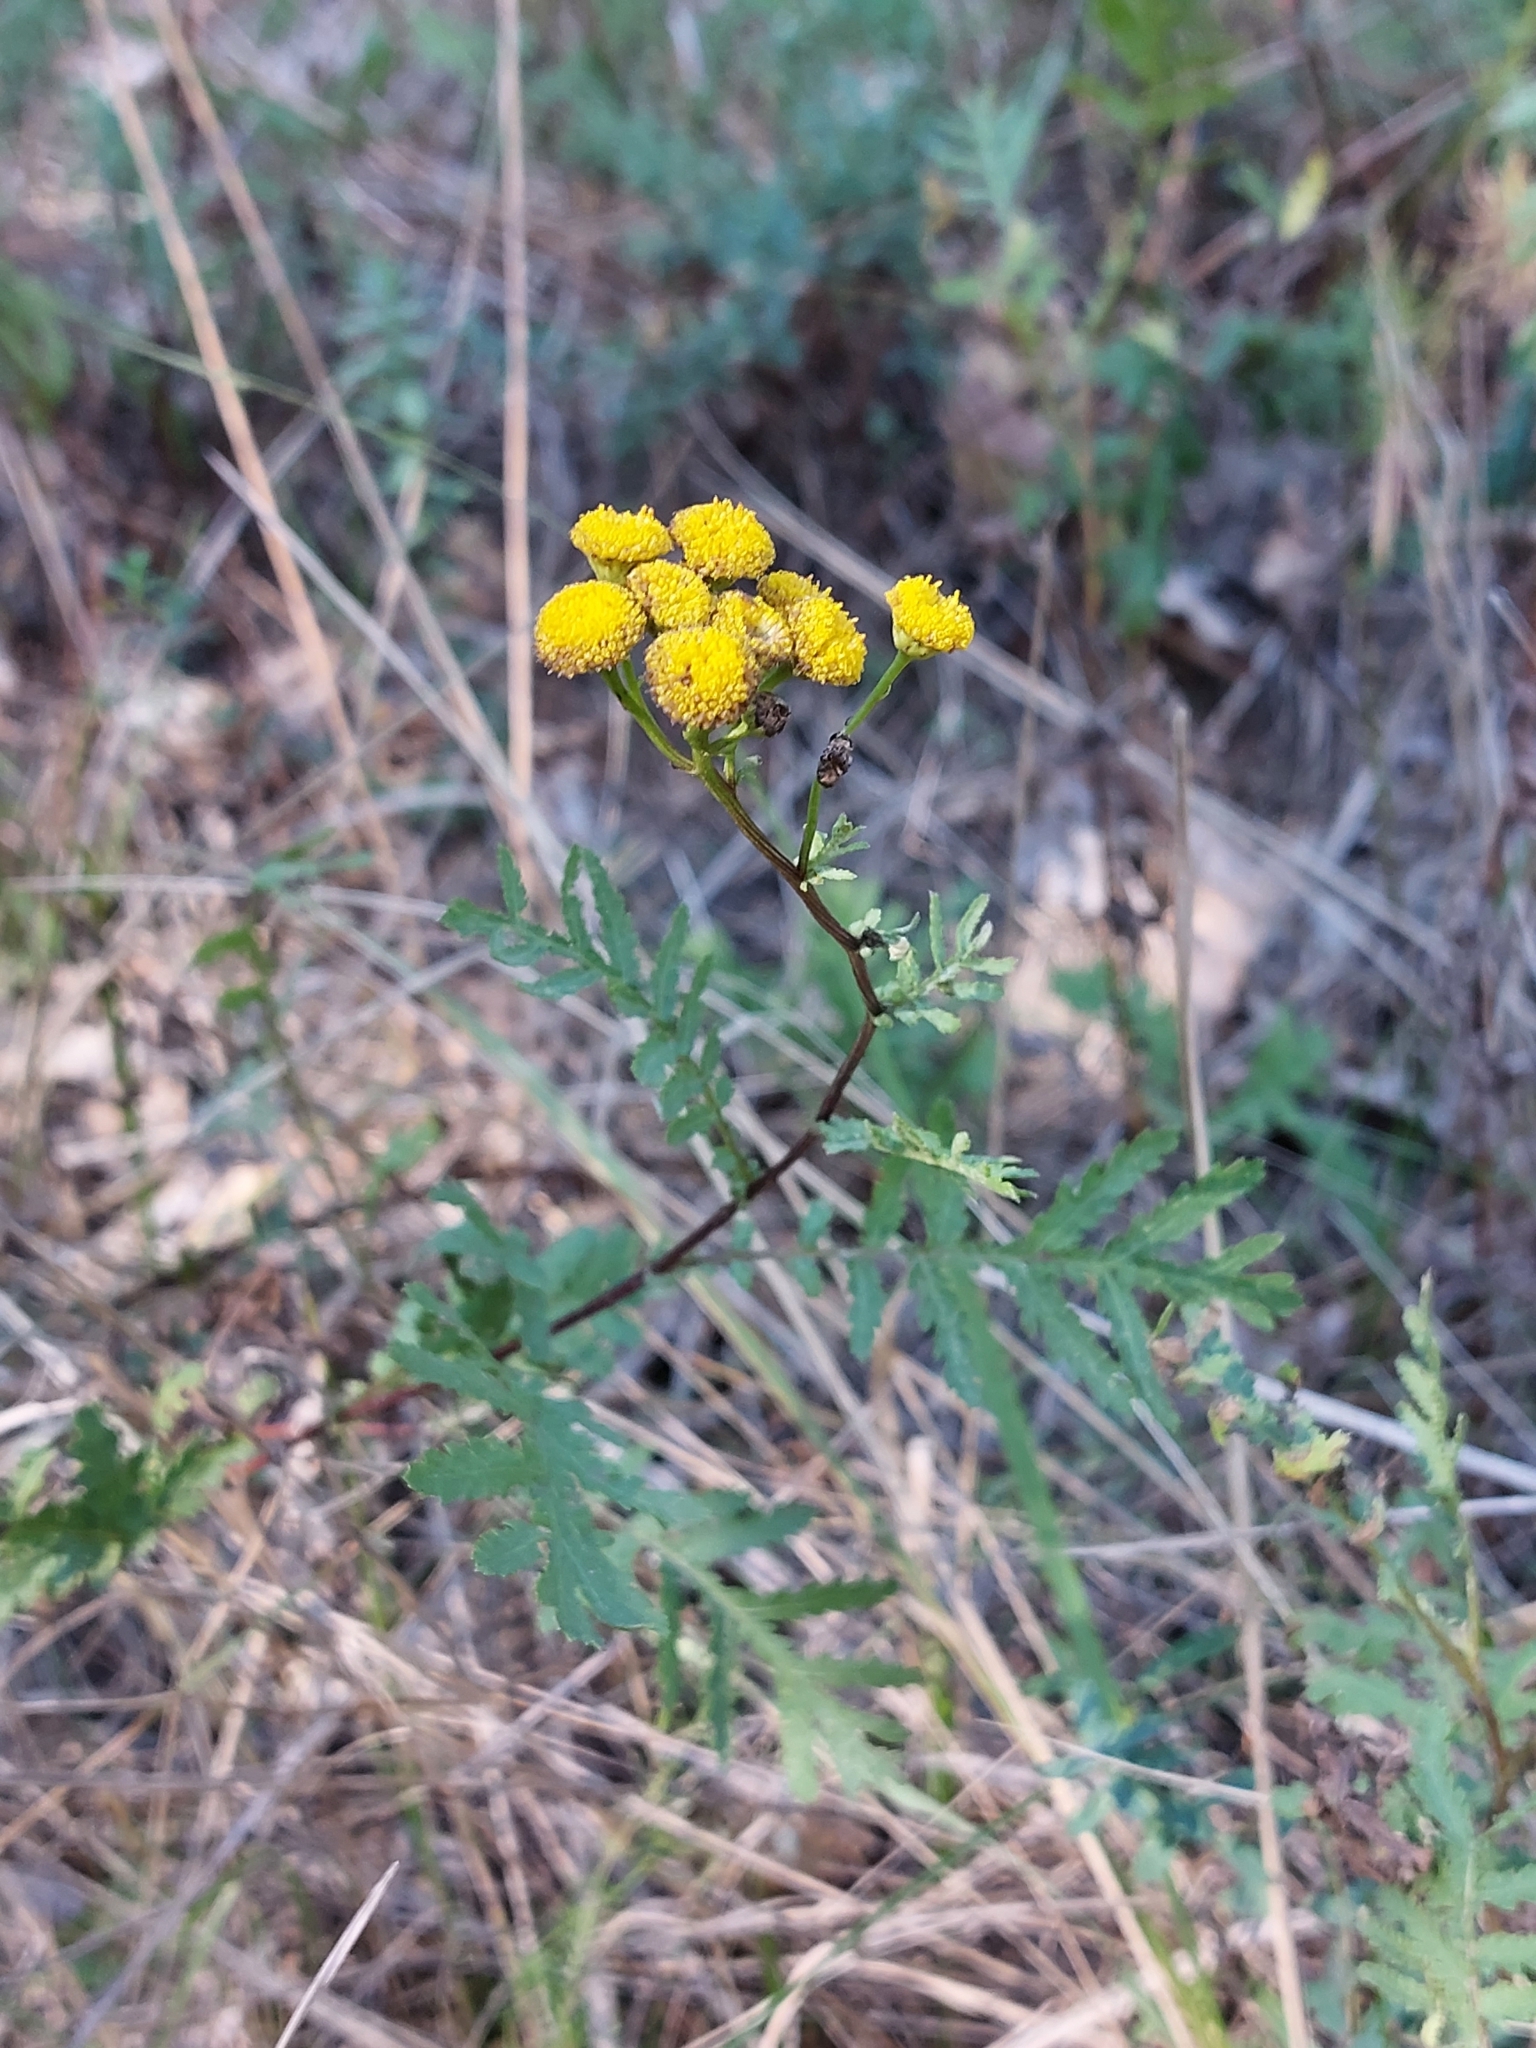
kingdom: Plantae
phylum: Tracheophyta
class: Magnoliopsida
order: Asterales
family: Asteraceae
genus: Tanacetum
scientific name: Tanacetum vulgare
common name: Common tansy
